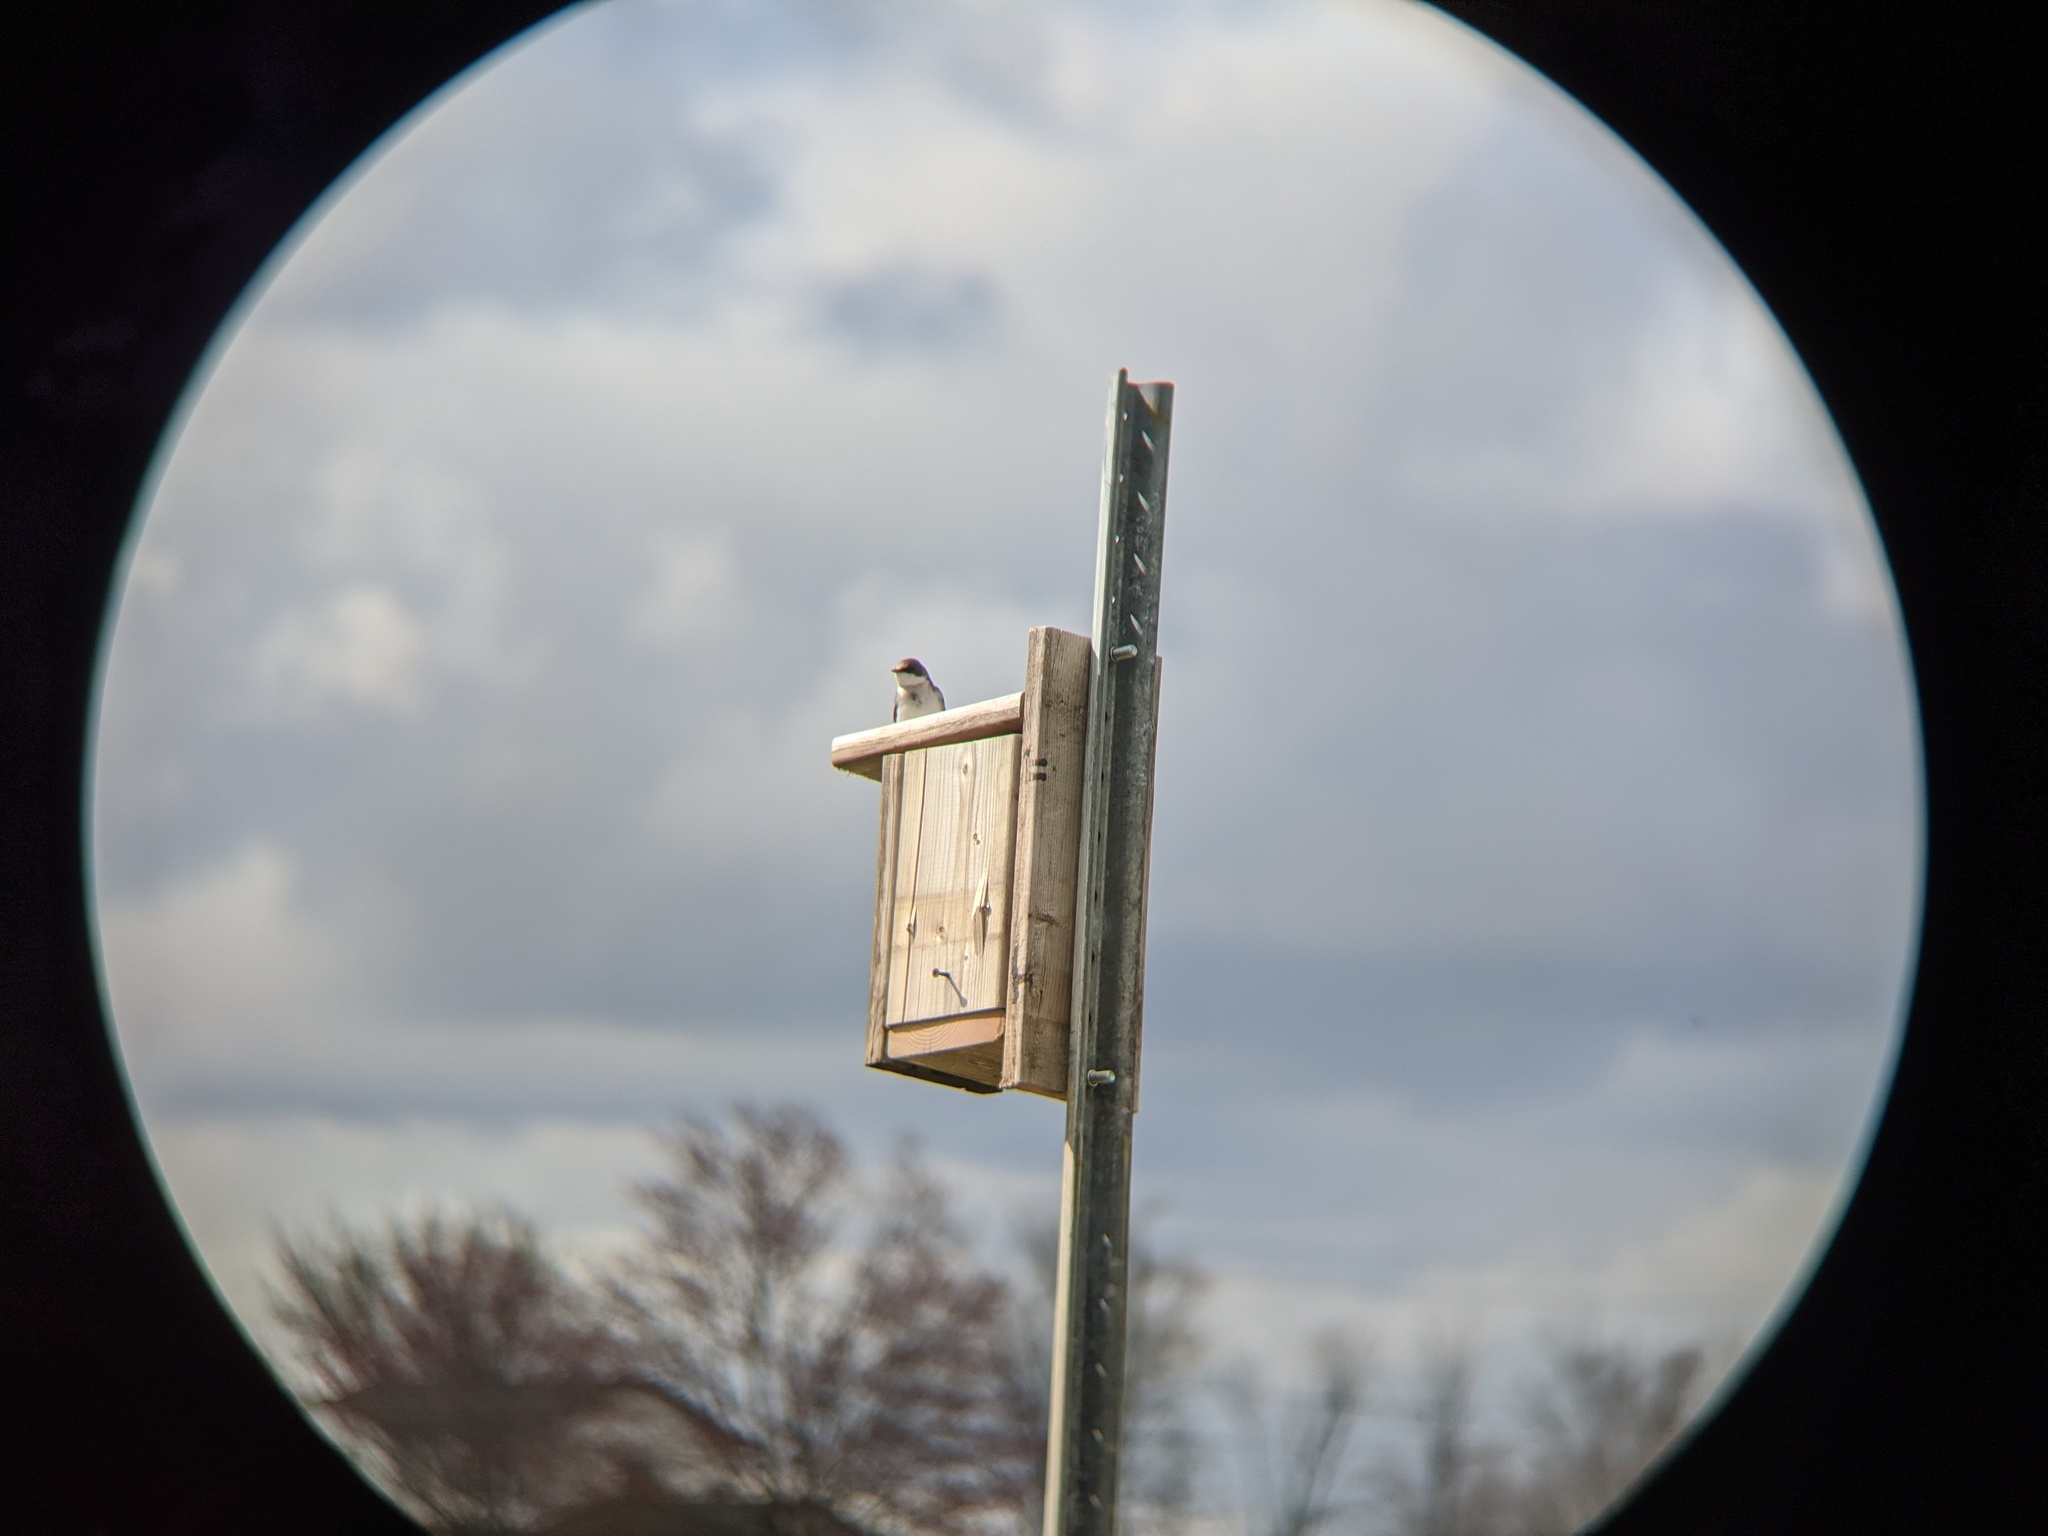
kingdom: Animalia
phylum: Chordata
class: Aves
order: Passeriformes
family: Hirundinidae
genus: Tachycineta
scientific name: Tachycineta bicolor
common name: Tree swallow
